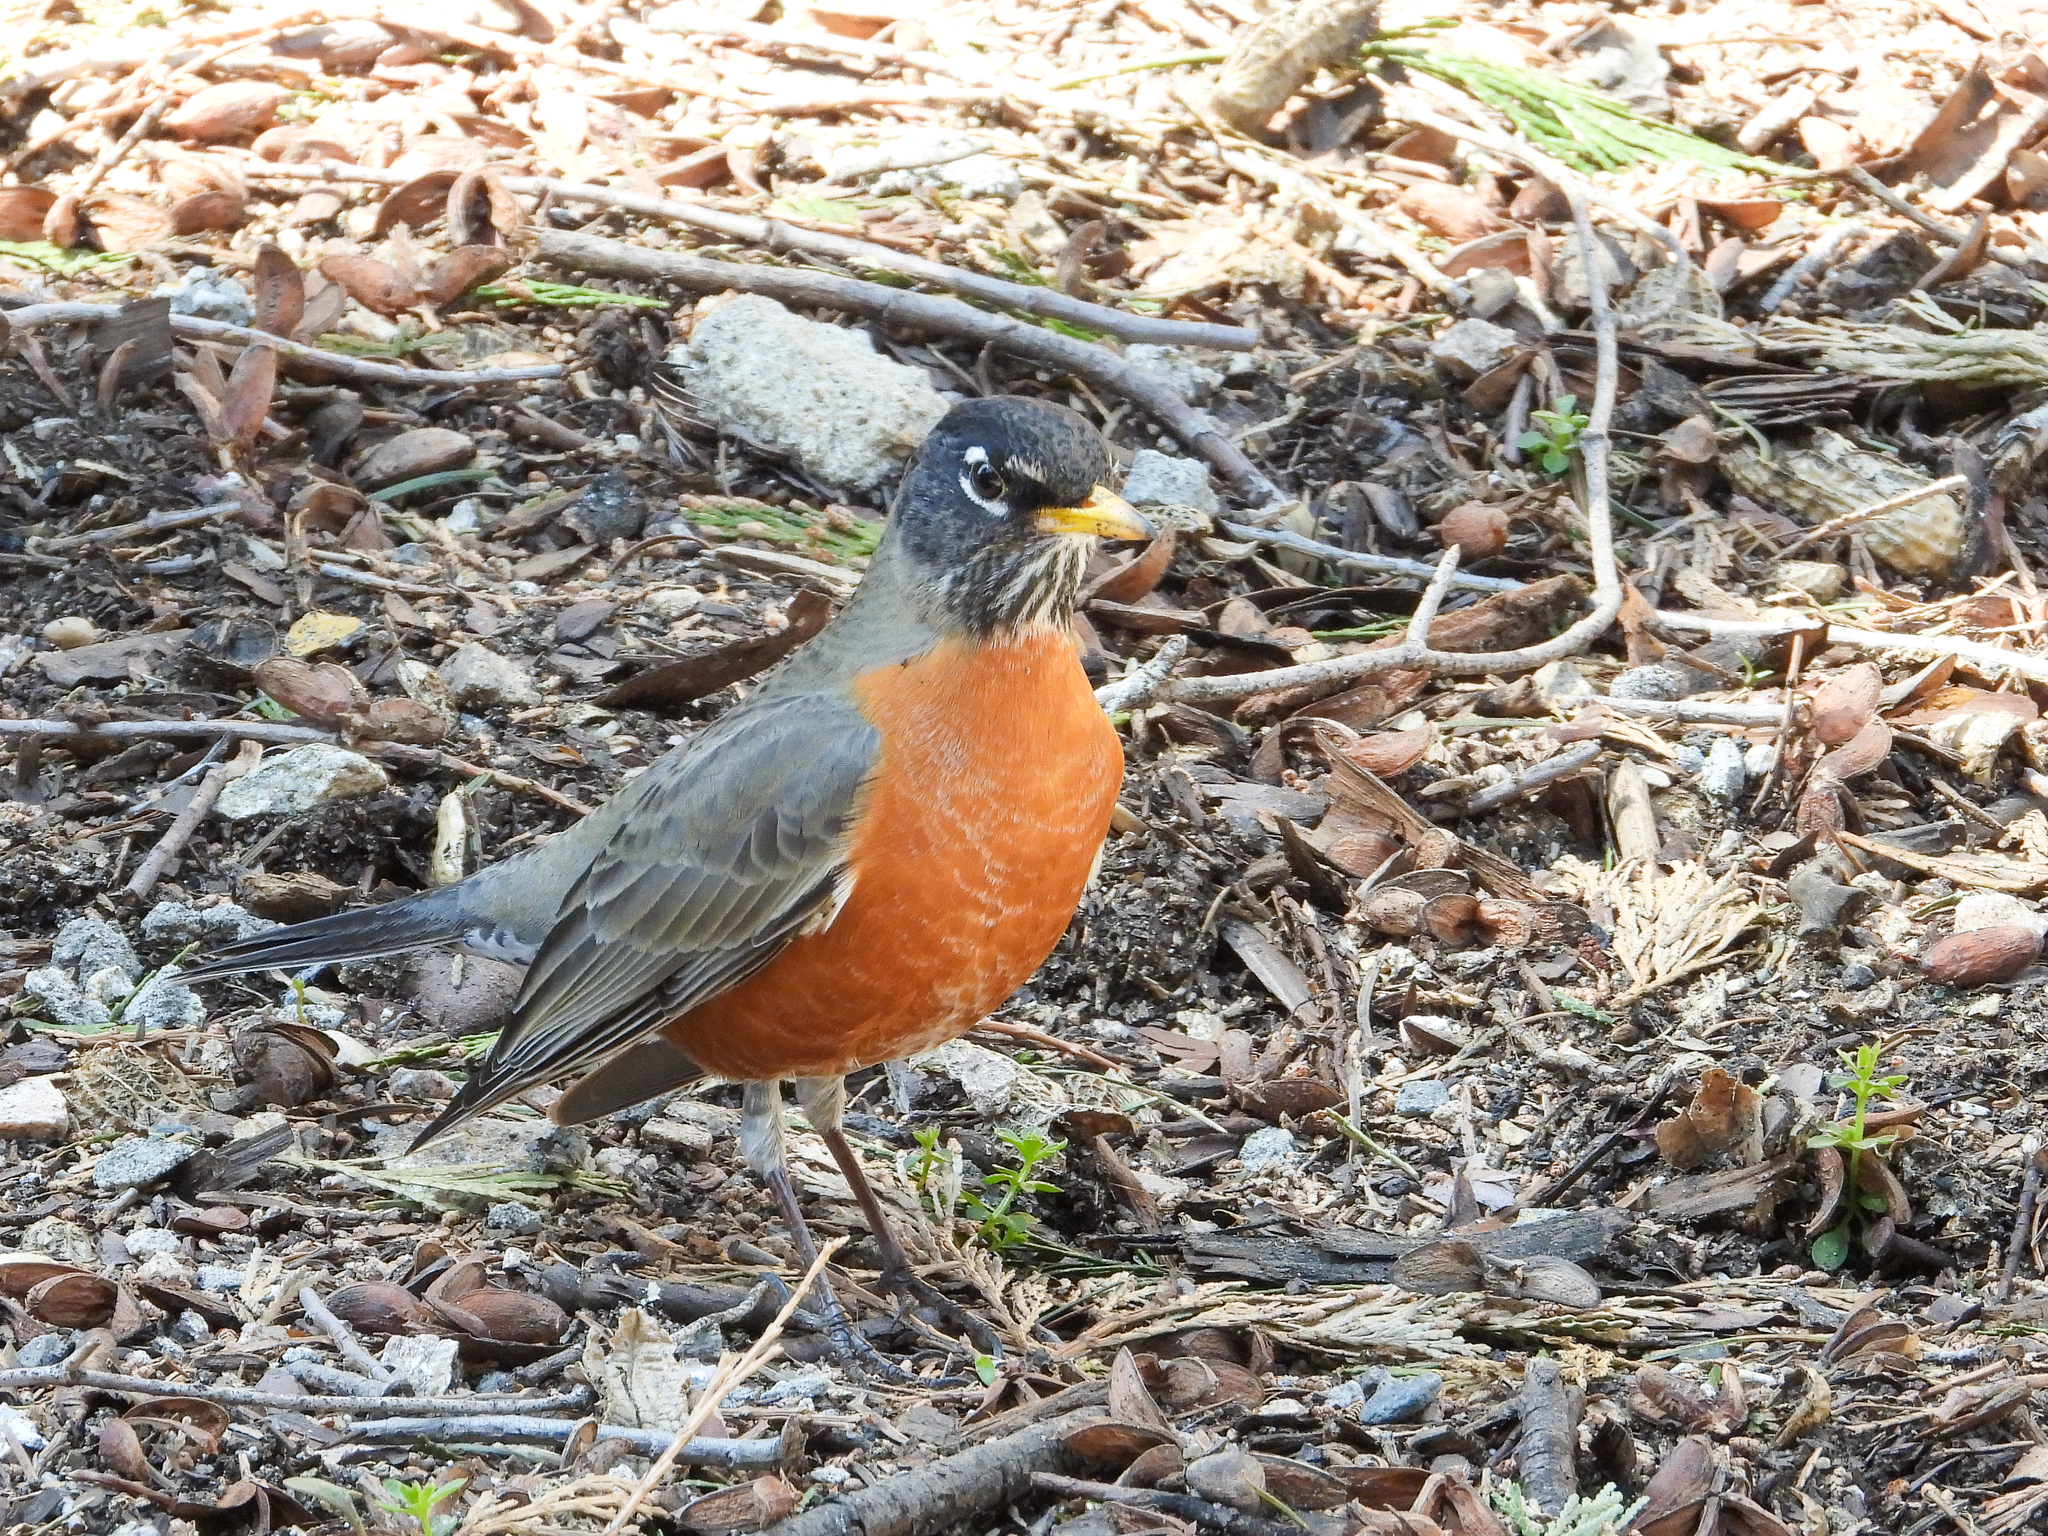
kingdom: Animalia
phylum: Chordata
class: Aves
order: Passeriformes
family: Turdidae
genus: Turdus
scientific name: Turdus migratorius
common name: American robin
